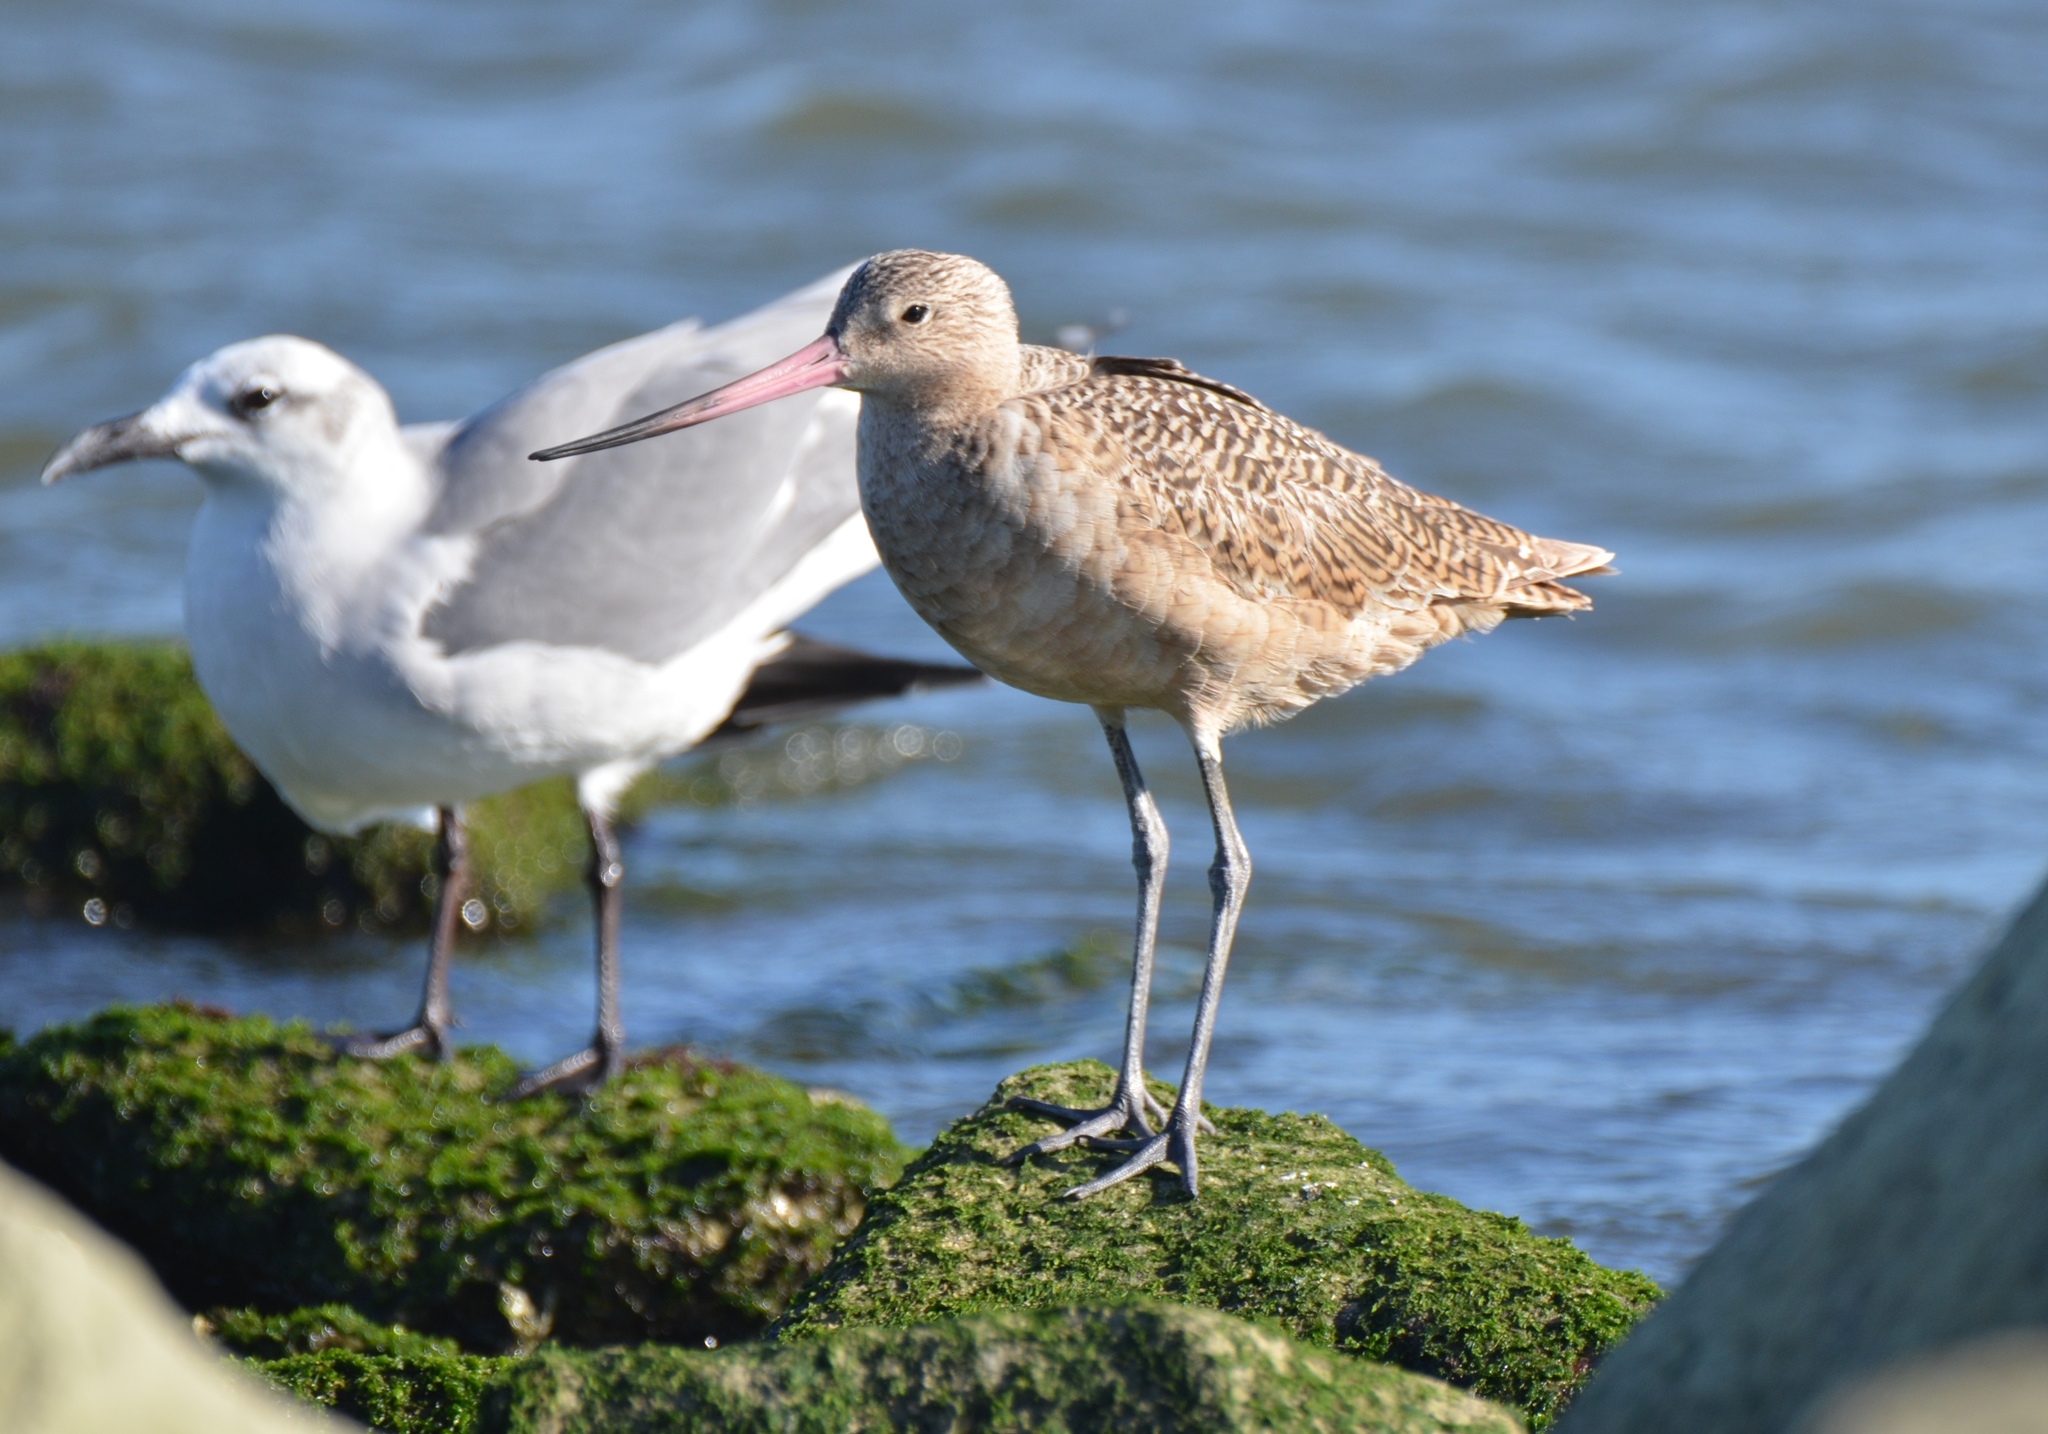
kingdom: Animalia
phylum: Chordata
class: Aves
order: Charadriiformes
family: Scolopacidae
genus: Limosa
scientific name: Limosa fedoa
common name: Marbled godwit
